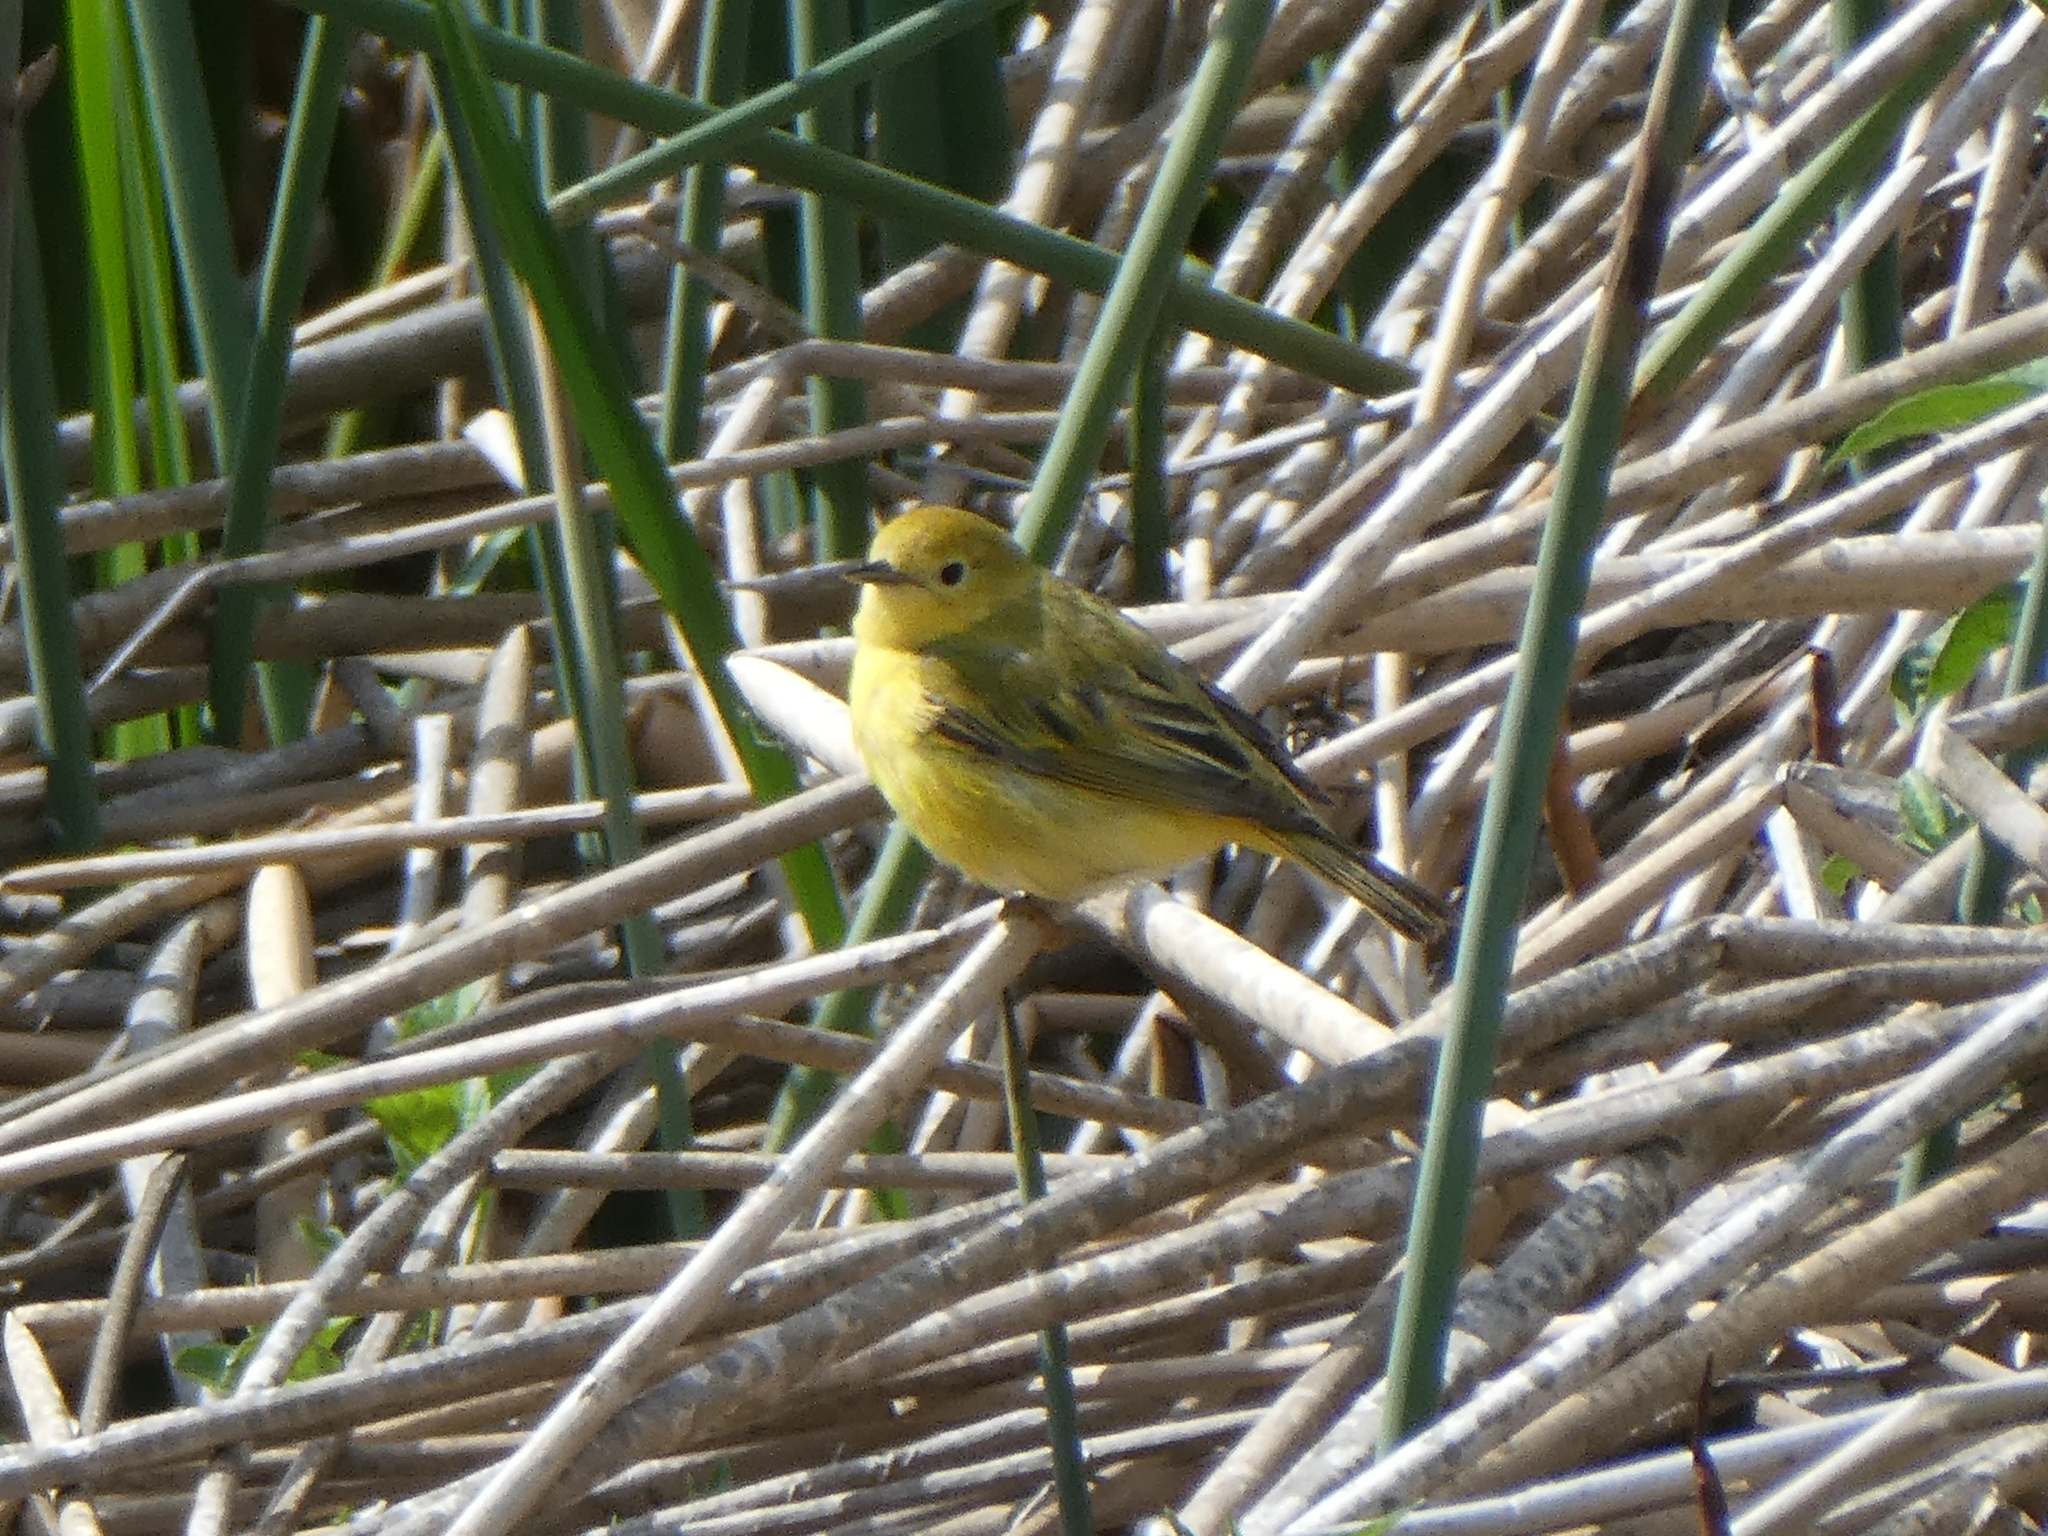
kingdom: Animalia
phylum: Chordata
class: Aves
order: Passeriformes
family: Parulidae
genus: Setophaga
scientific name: Setophaga petechia
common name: Yellow warbler
